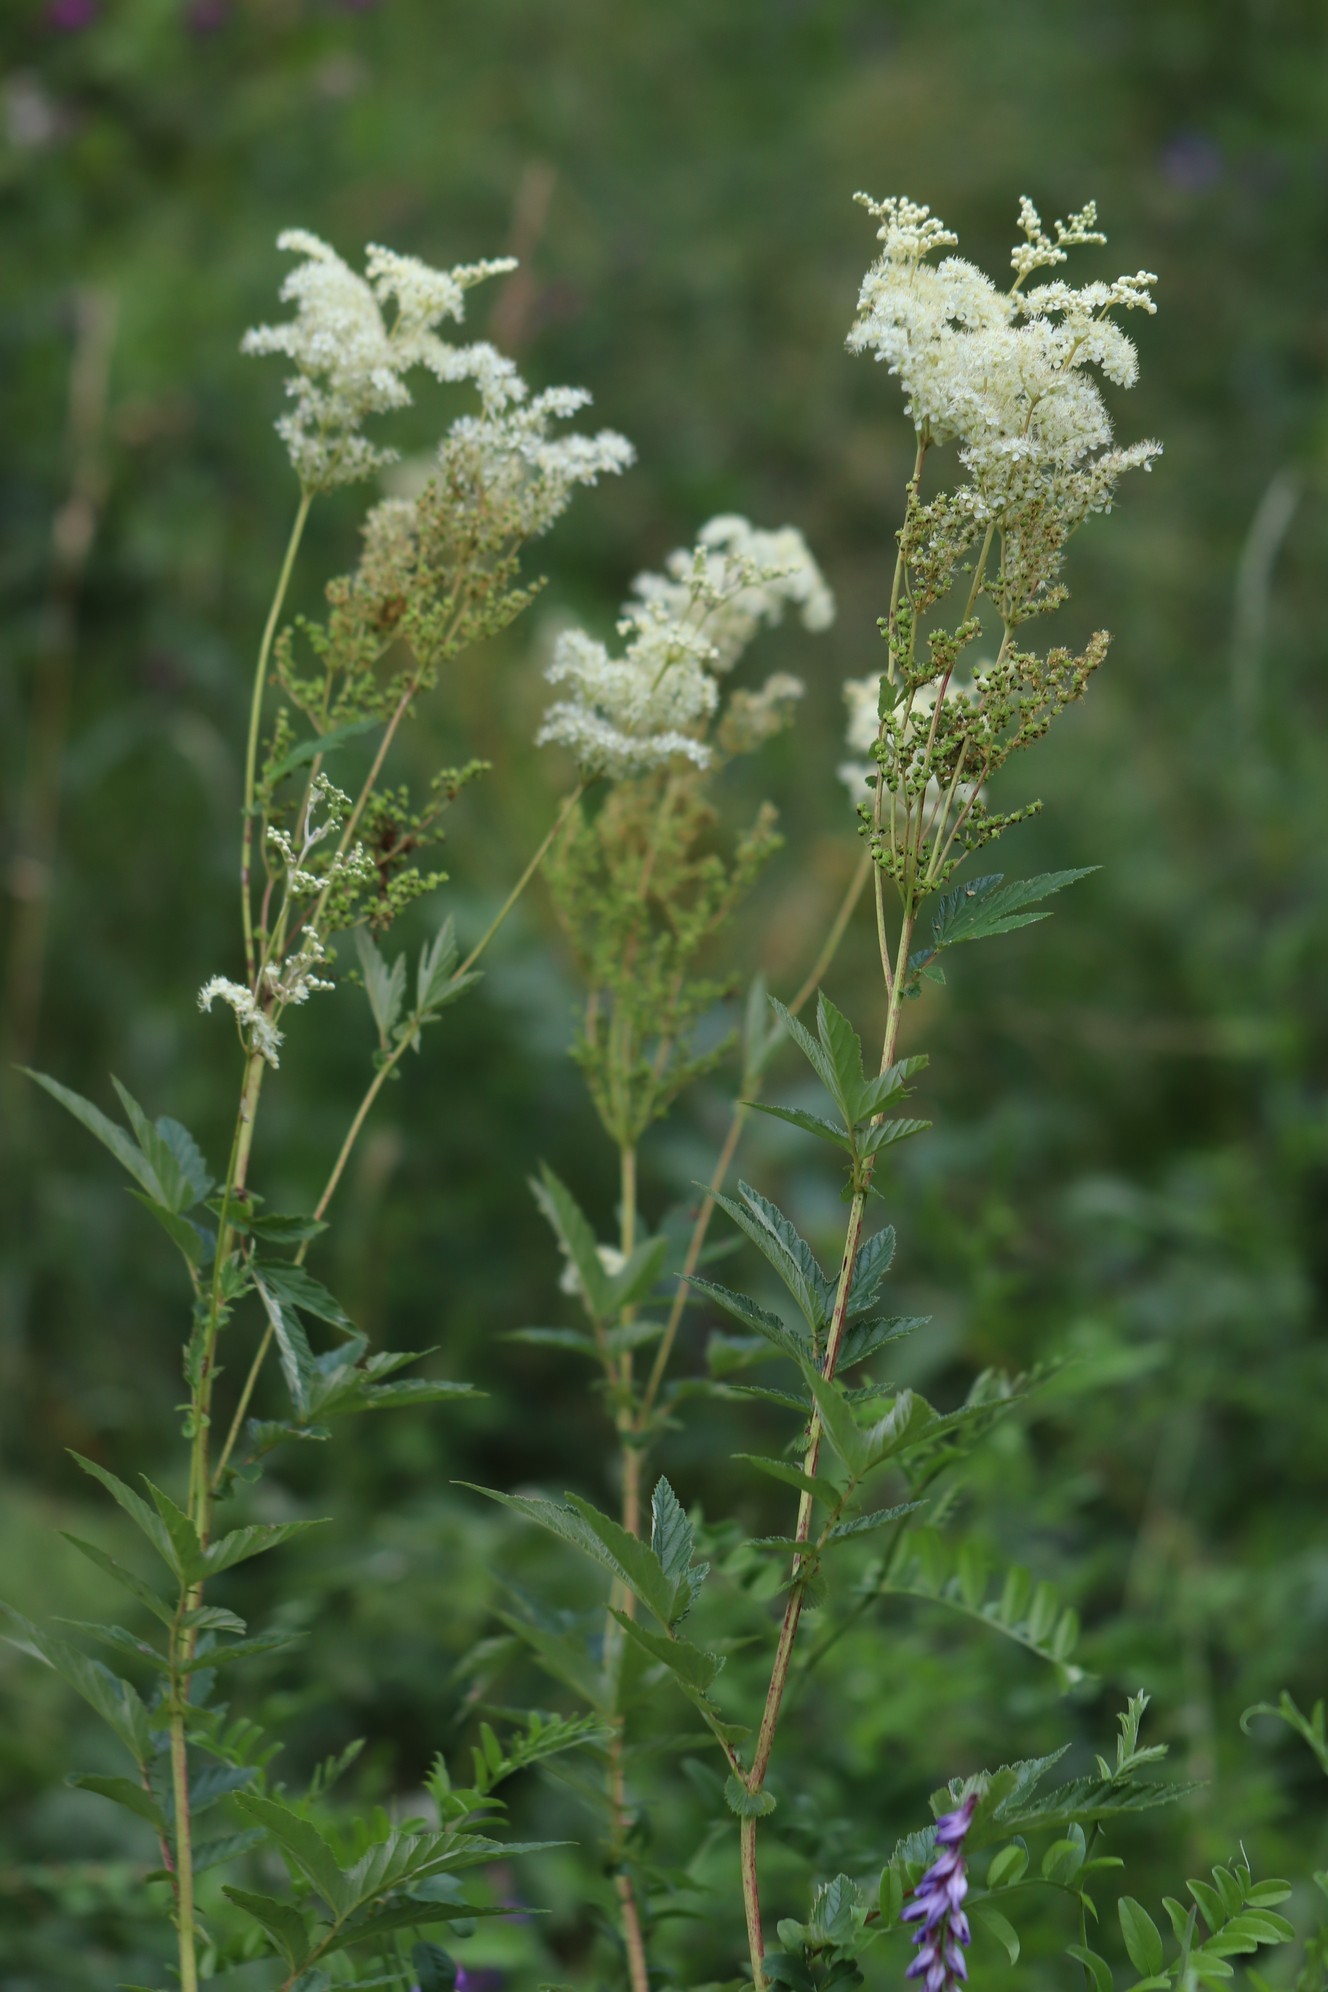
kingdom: Plantae
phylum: Tracheophyta
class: Magnoliopsida
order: Rosales
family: Rosaceae
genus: Filipendula
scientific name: Filipendula ulmaria
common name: Meadowsweet
